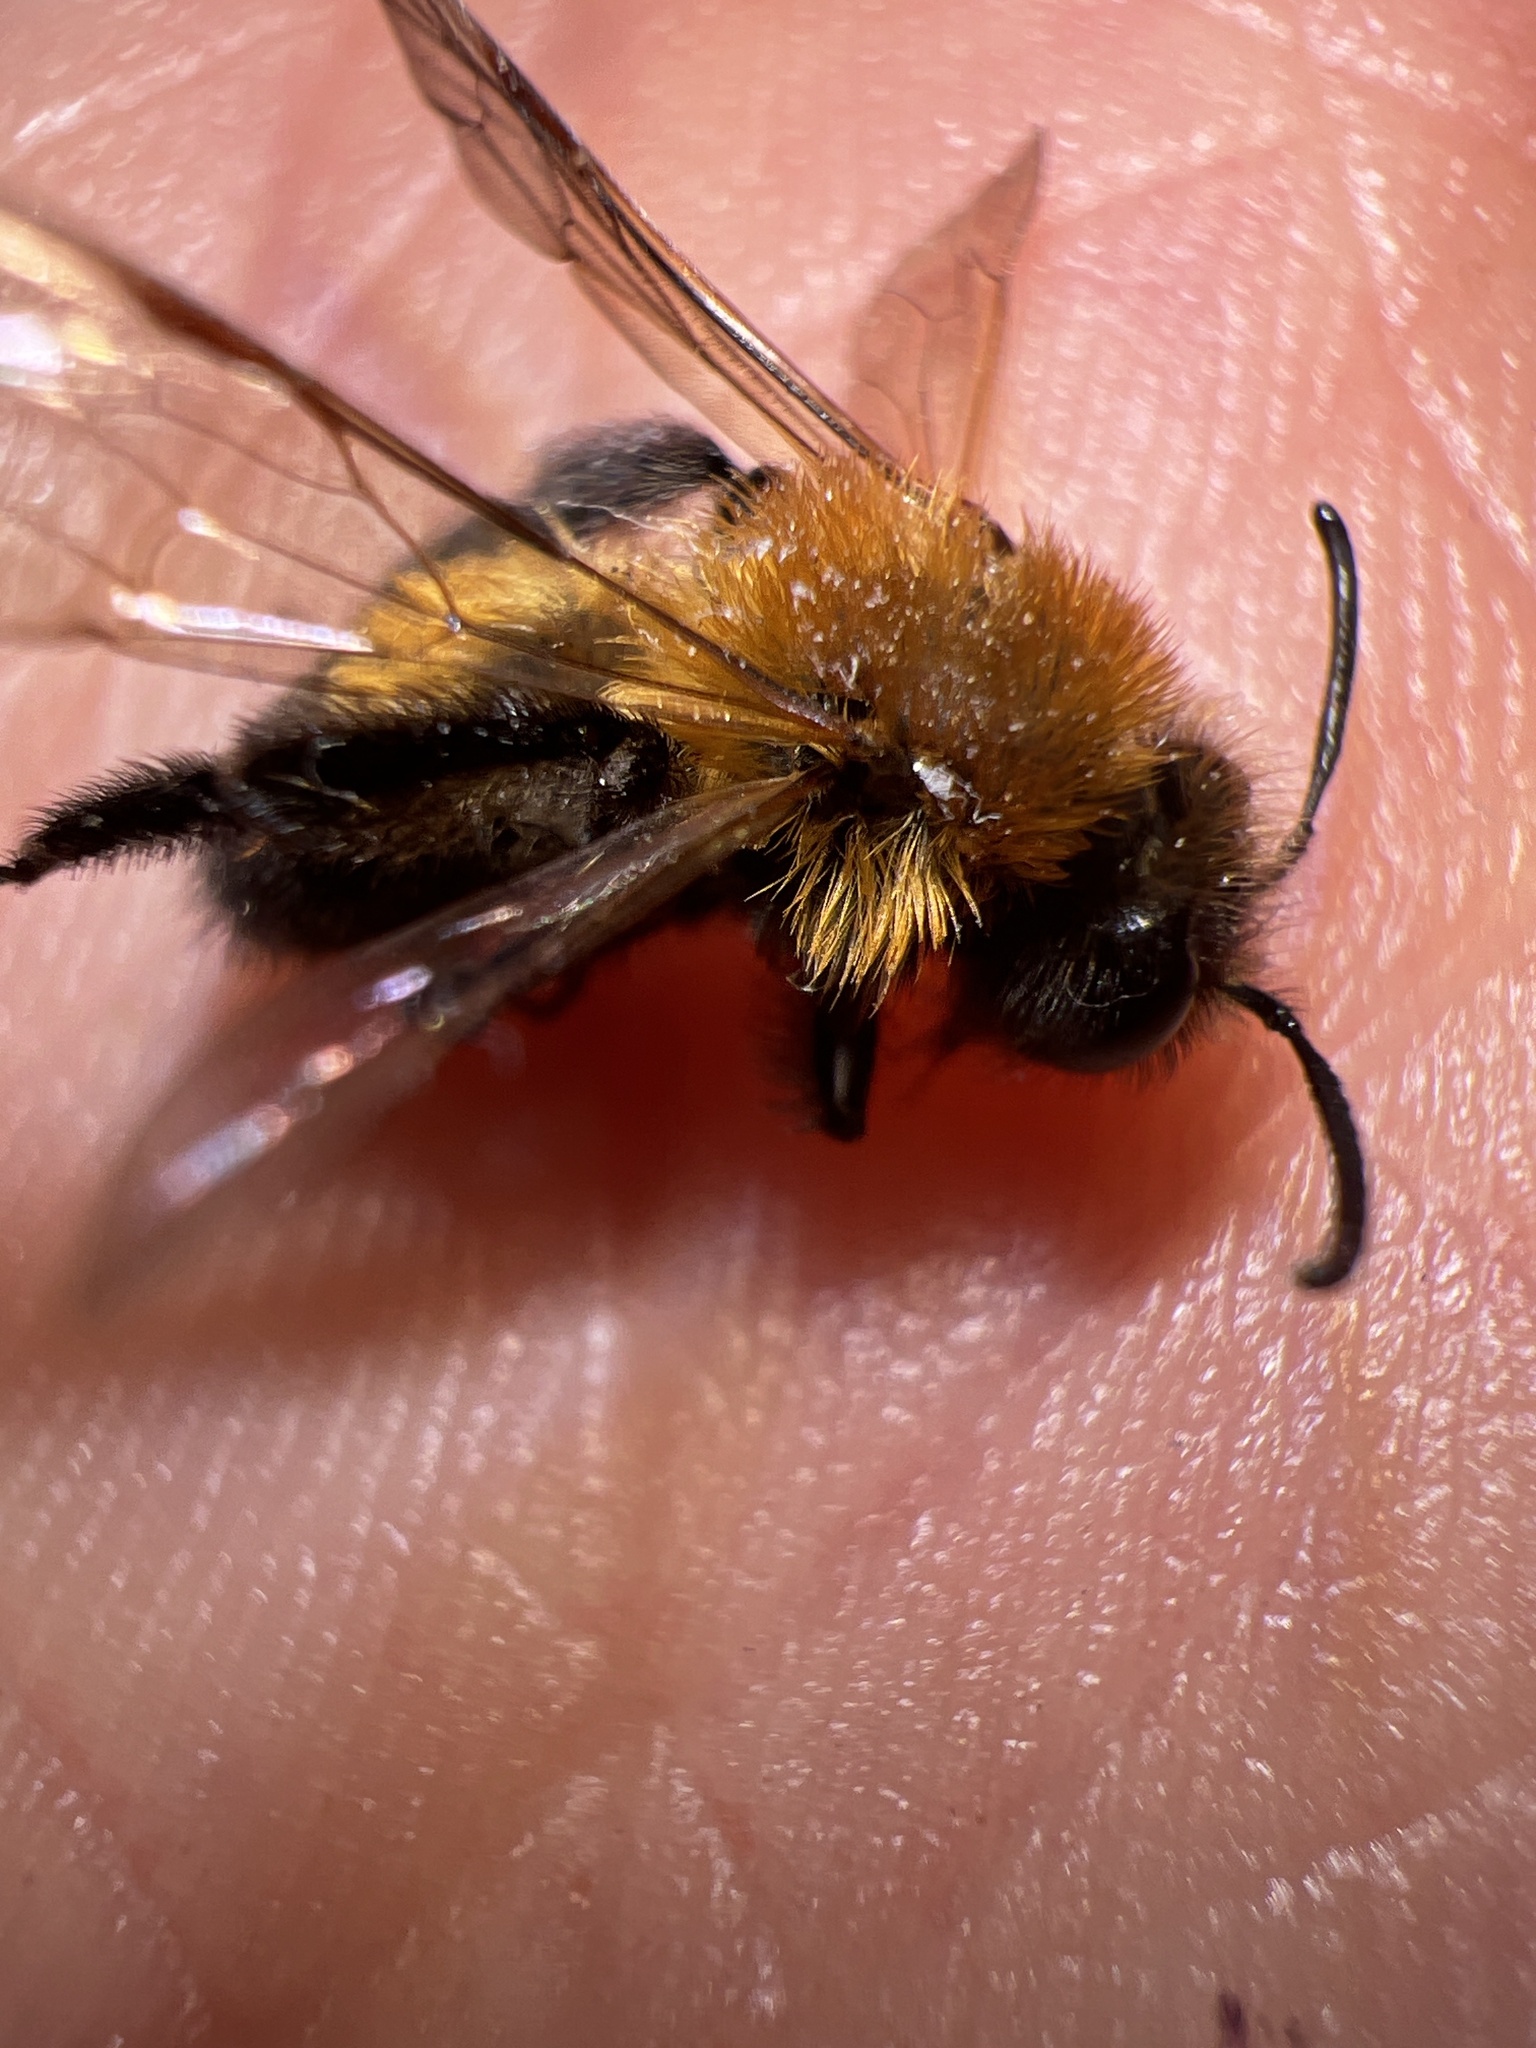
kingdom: Animalia
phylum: Arthropoda
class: Insecta
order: Hymenoptera
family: Andrenidae
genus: Andrena
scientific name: Andrena milwaukeensis
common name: Milwaukee mining bee
